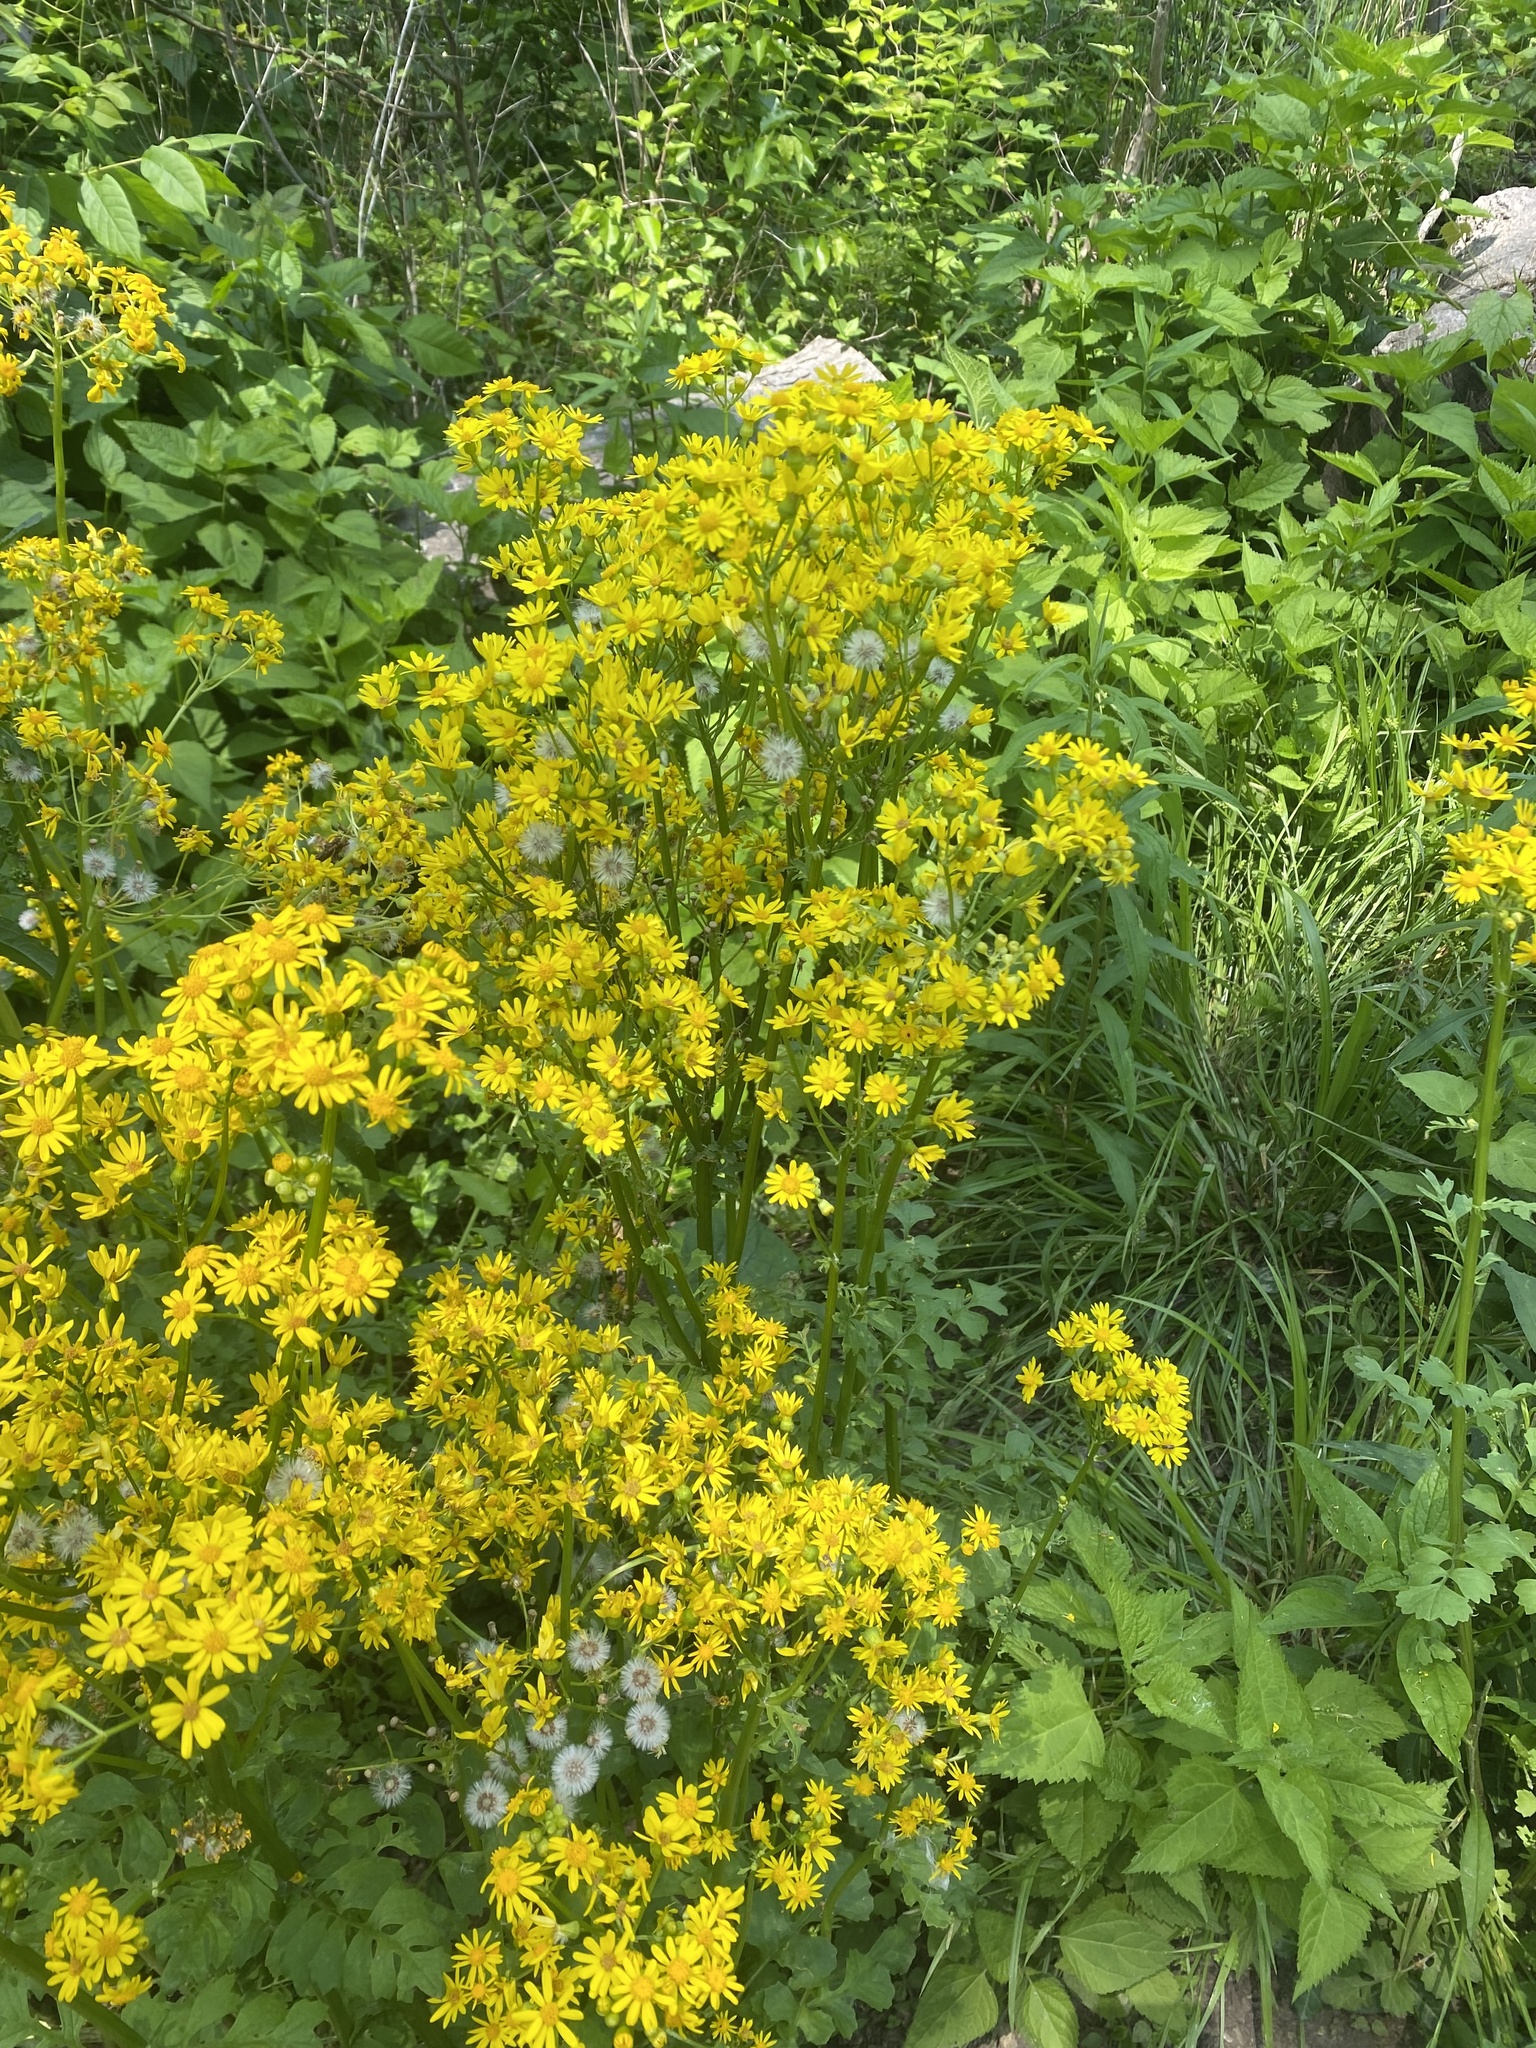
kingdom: Plantae
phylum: Tracheophyta
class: Magnoliopsida
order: Asterales
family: Asteraceae
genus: Packera
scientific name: Packera glabella
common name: Butterweed
